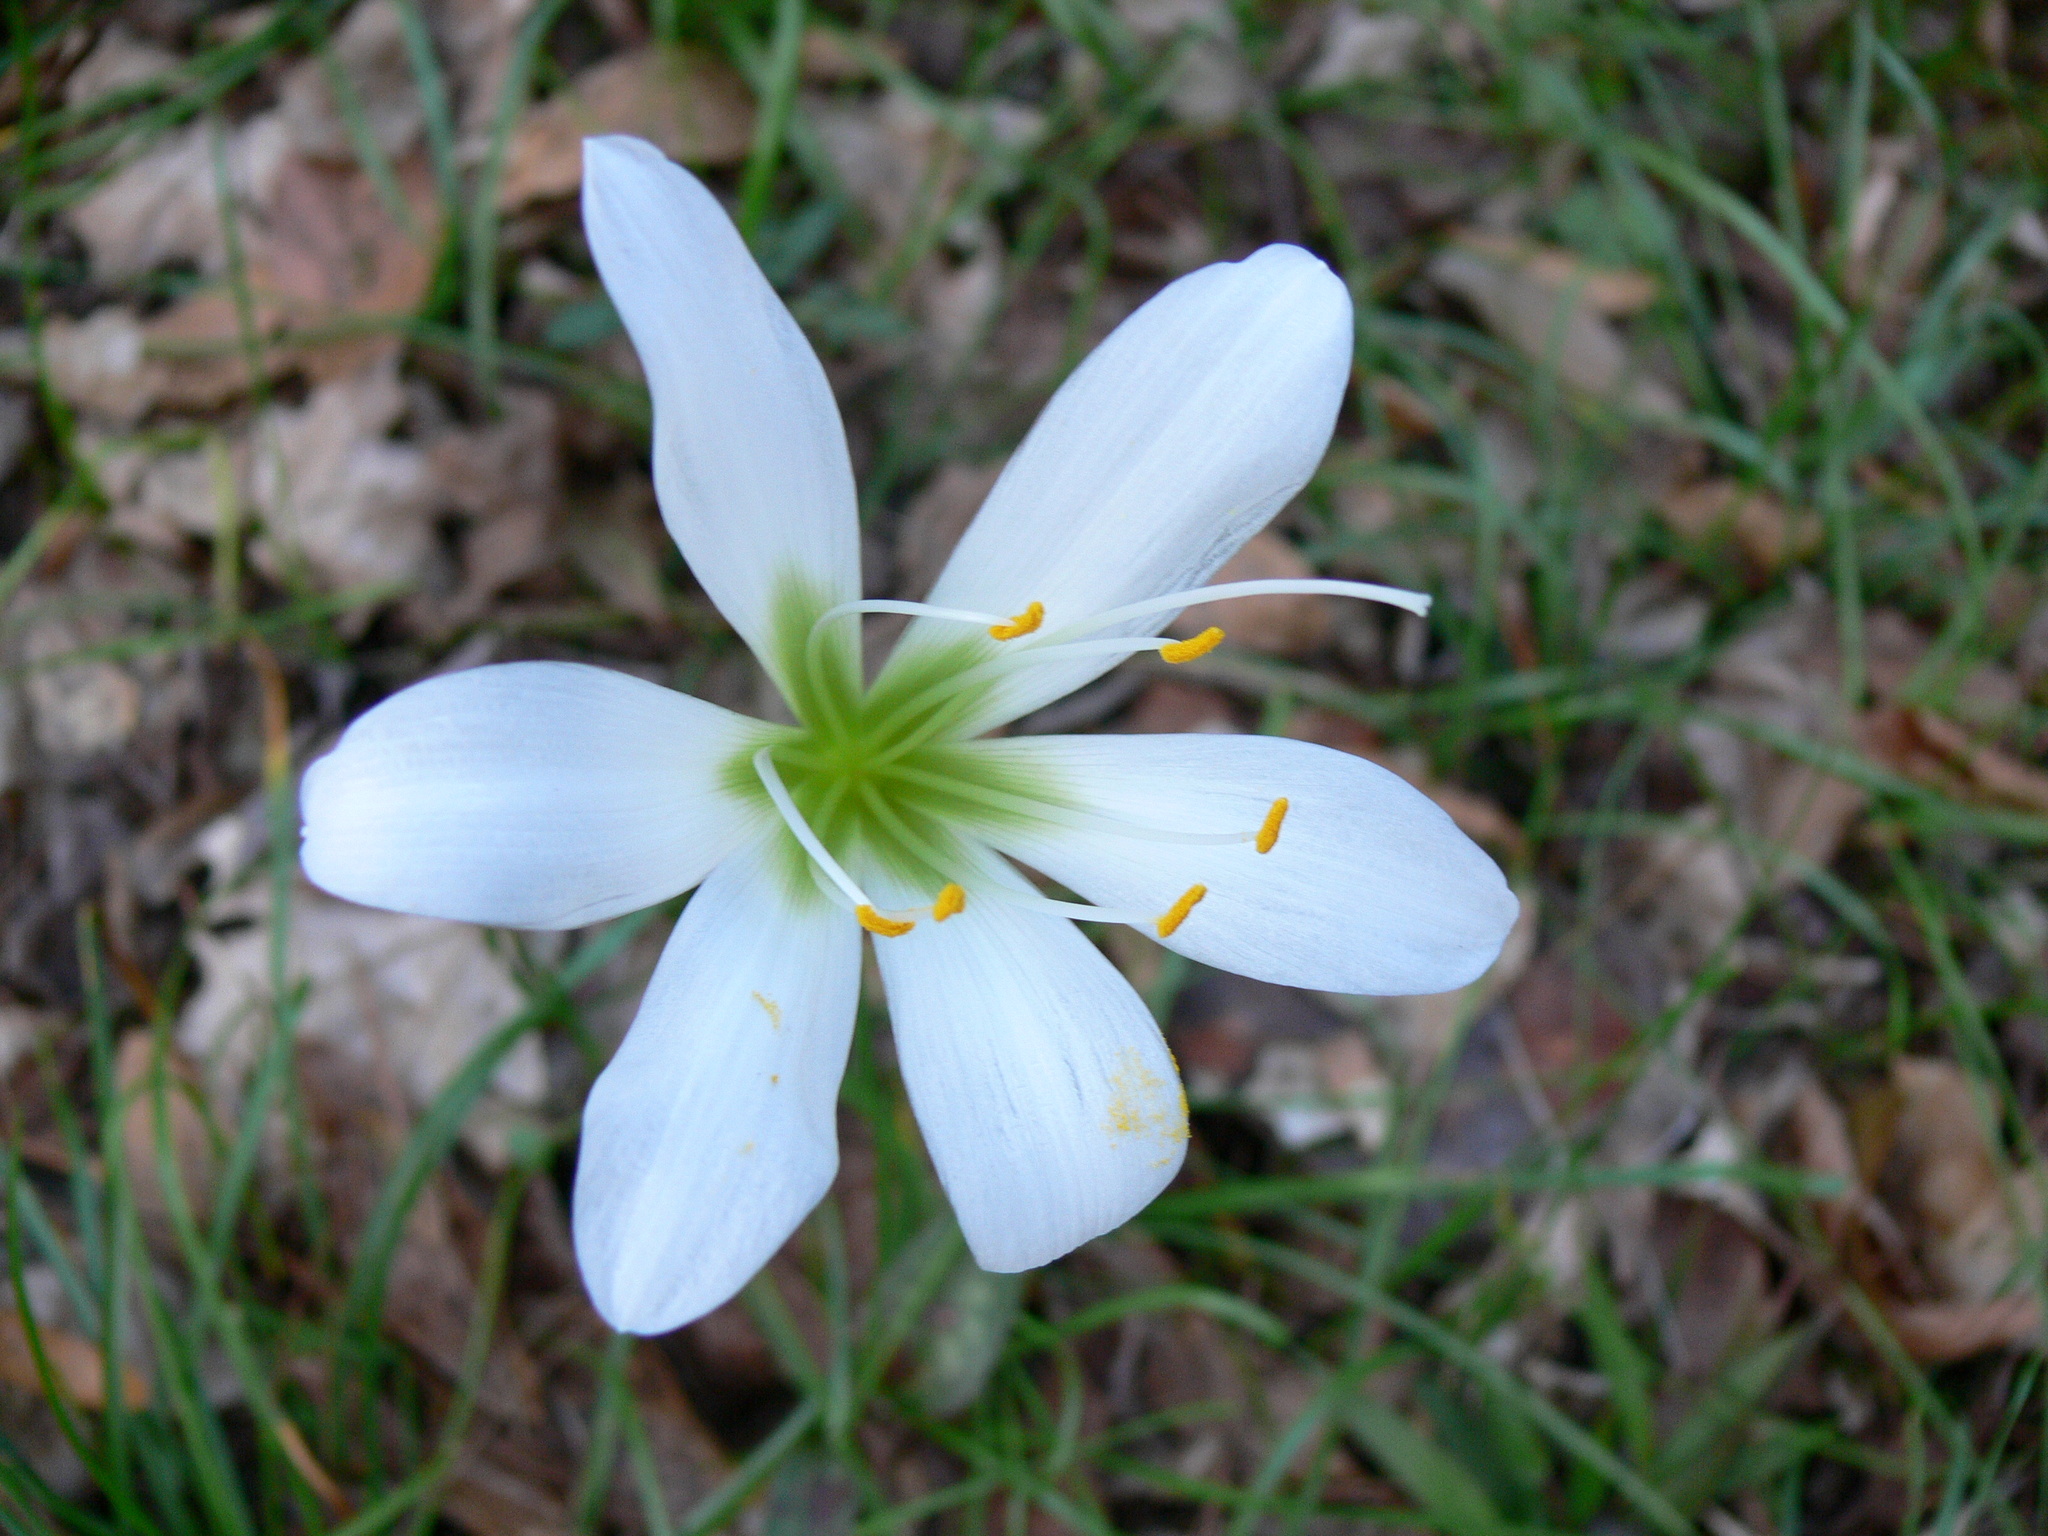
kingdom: Plantae
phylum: Tracheophyta
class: Liliopsida
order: Asparagales
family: Amaryllidaceae
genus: Zephyranthes
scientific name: Zephyranthes atamasco
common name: Atamasco lily
